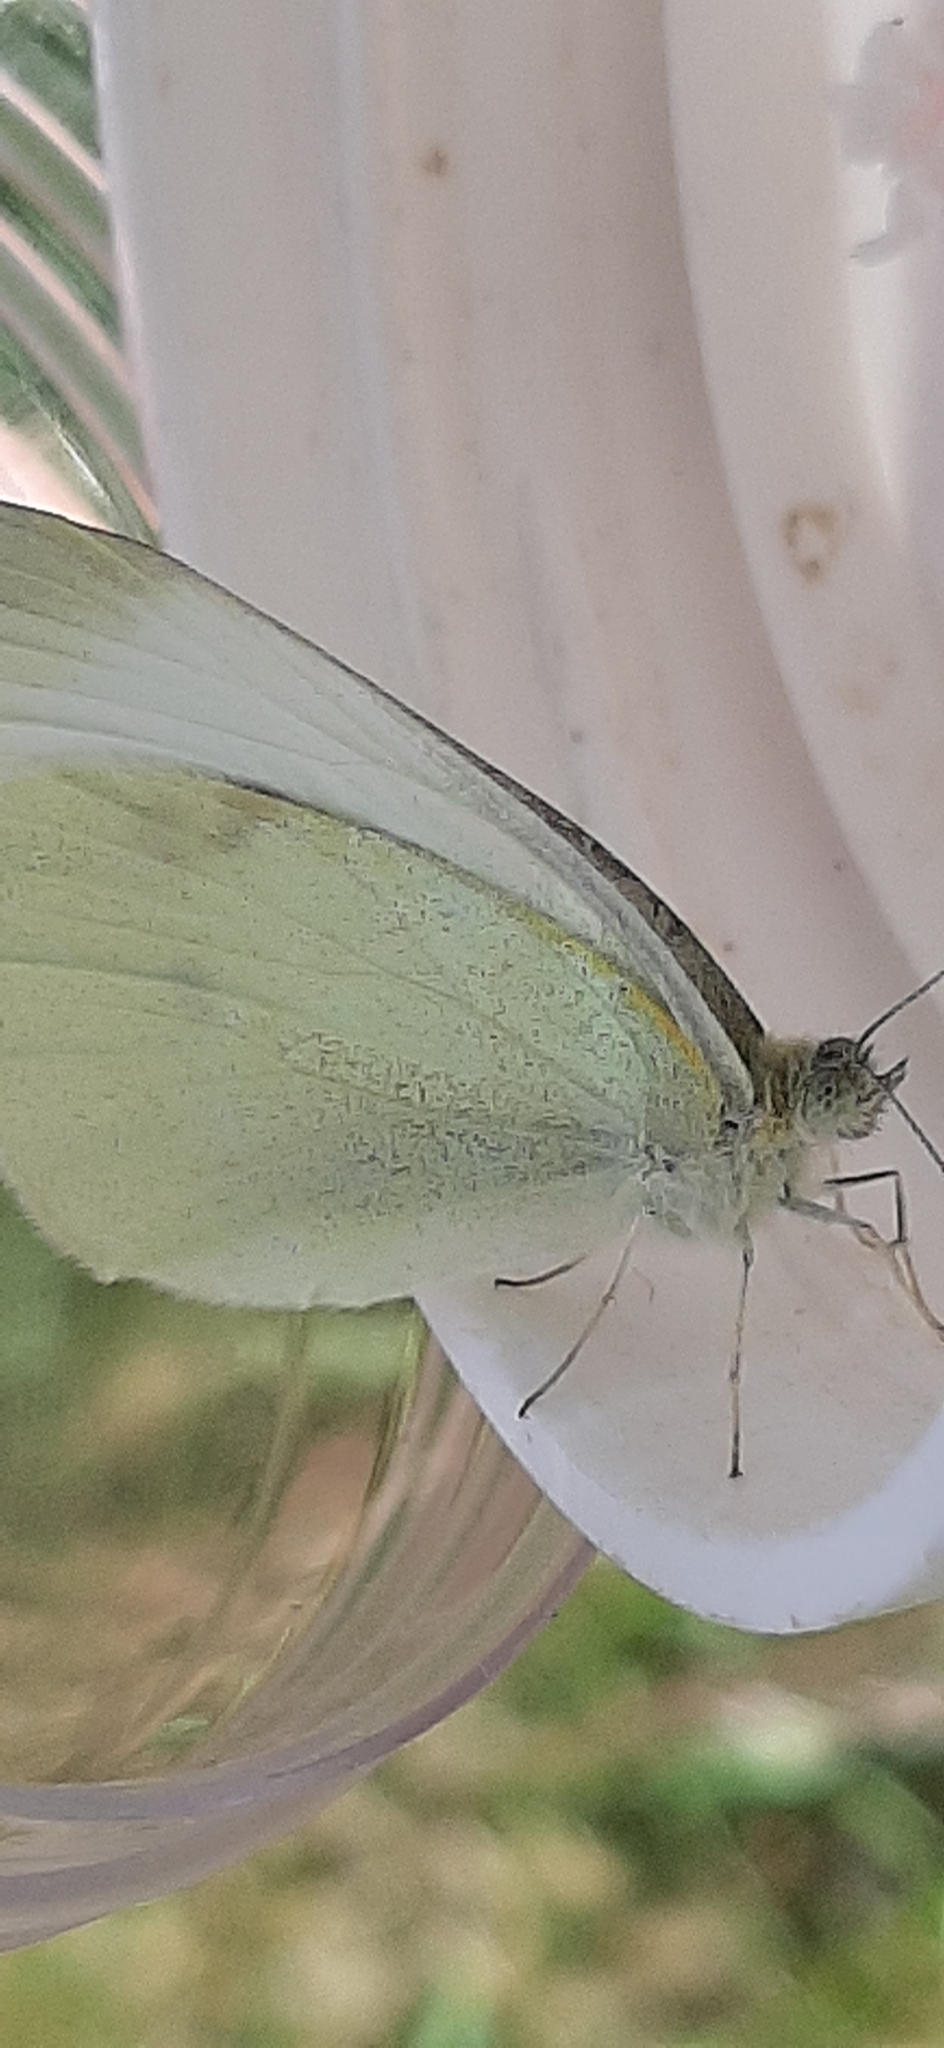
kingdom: Animalia
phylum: Arthropoda
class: Insecta
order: Lepidoptera
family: Pieridae
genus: Pieris
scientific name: Pieris rapae
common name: Small white
